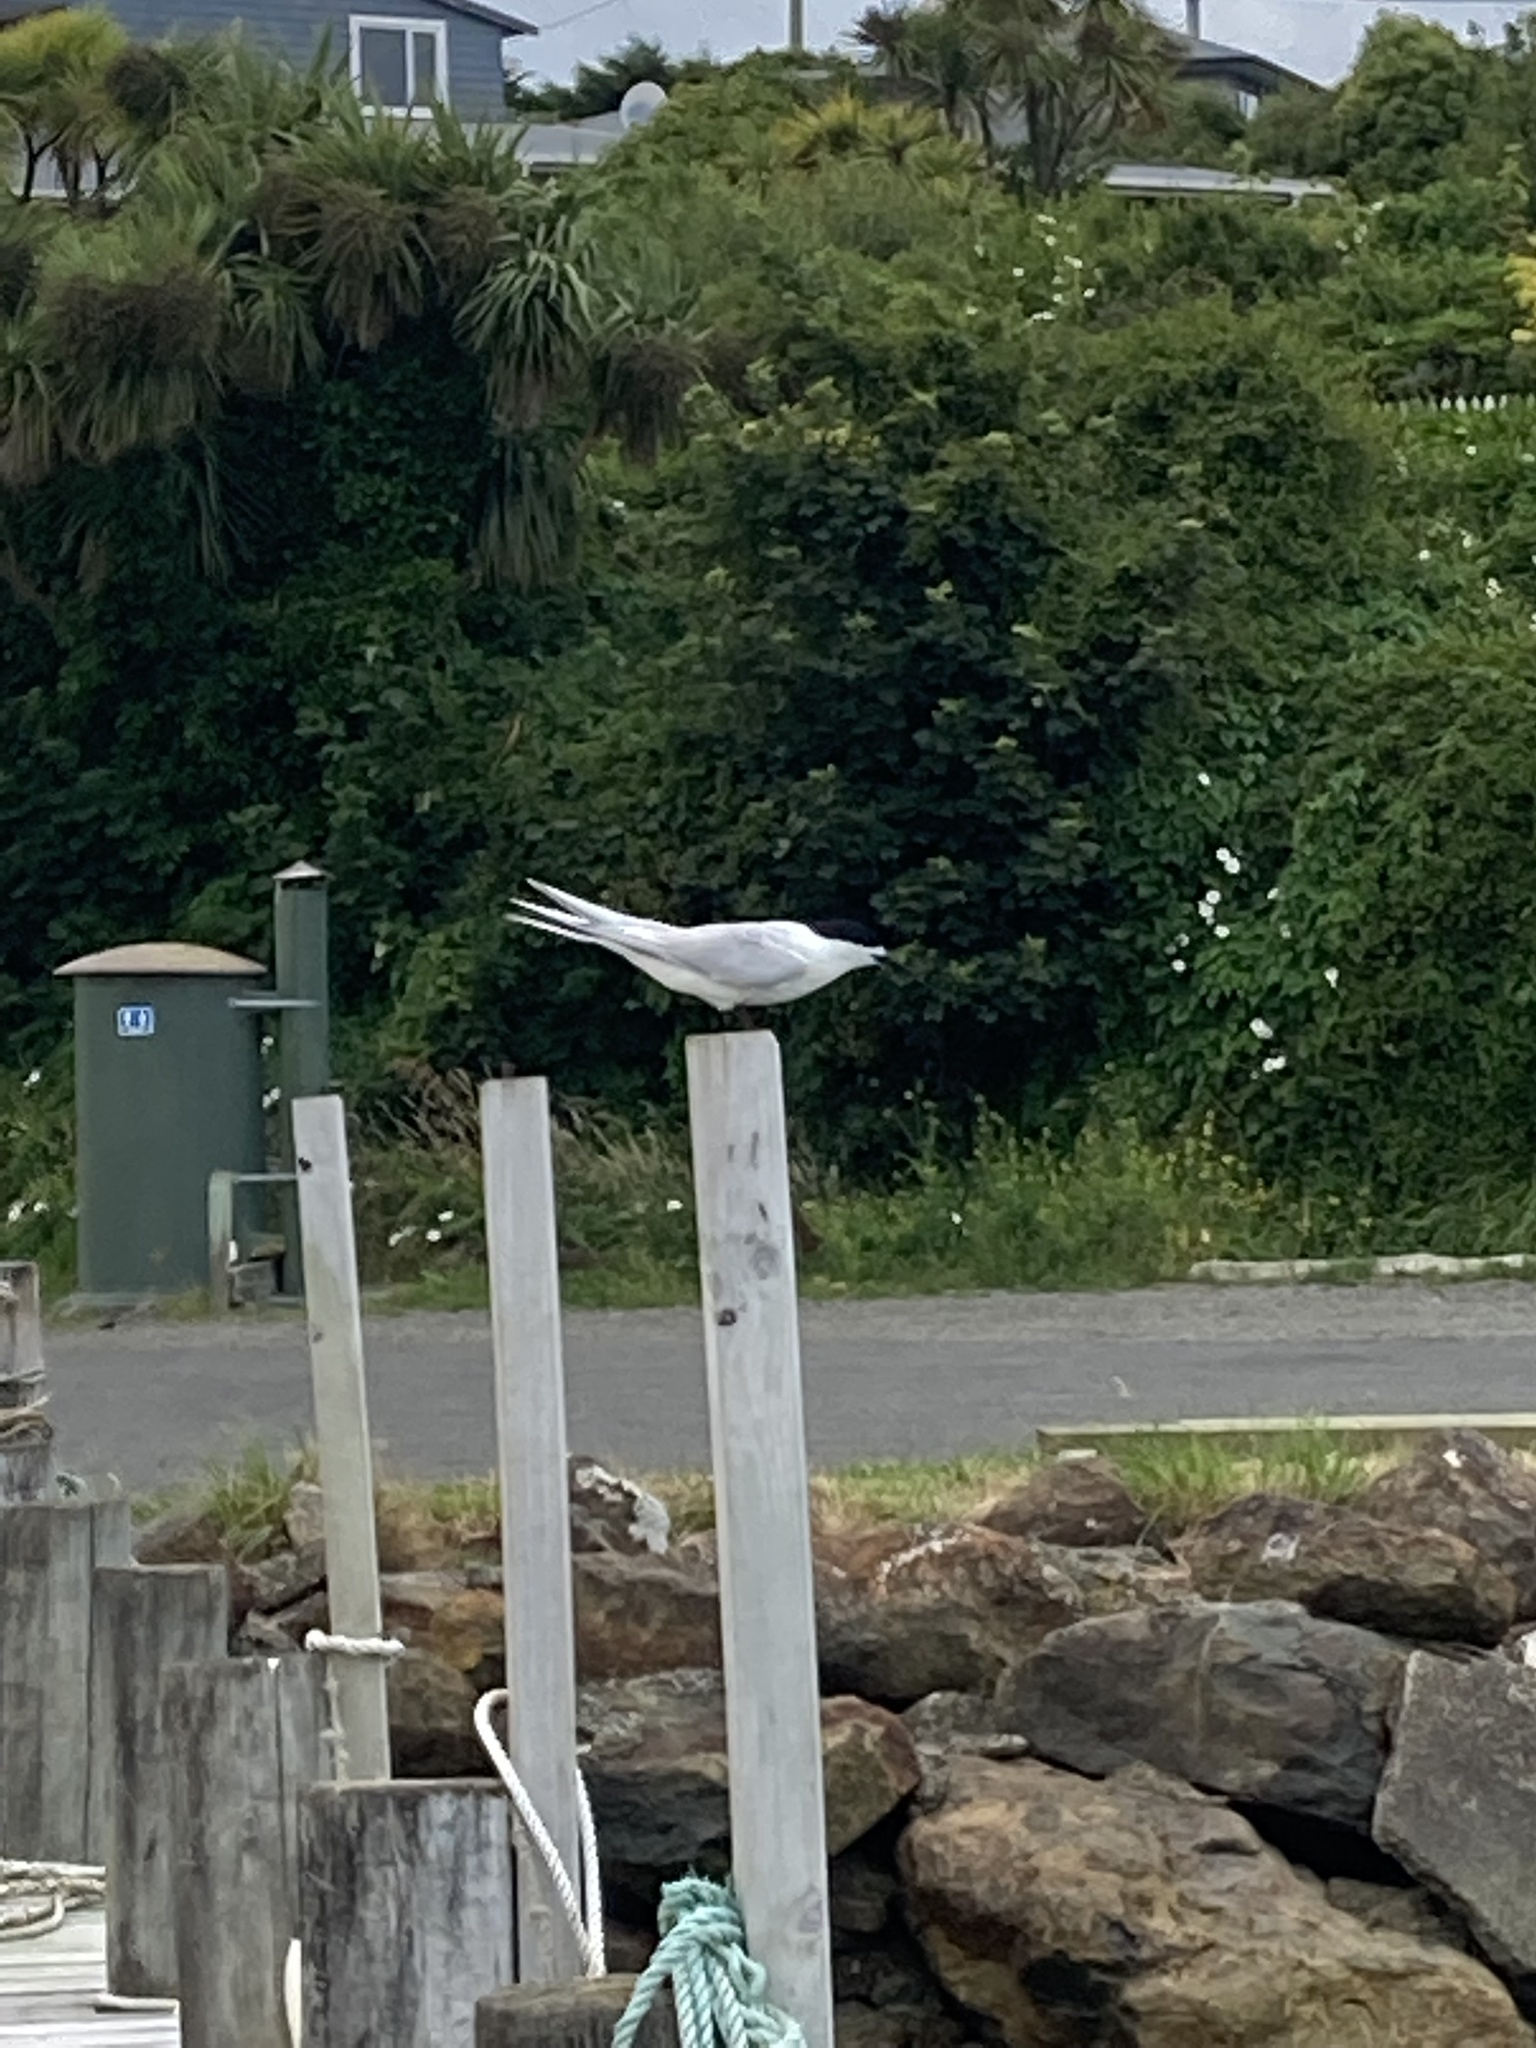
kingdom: Animalia
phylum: Chordata
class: Aves
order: Charadriiformes
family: Laridae
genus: Sterna
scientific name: Sterna striata
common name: White-fronted tern
